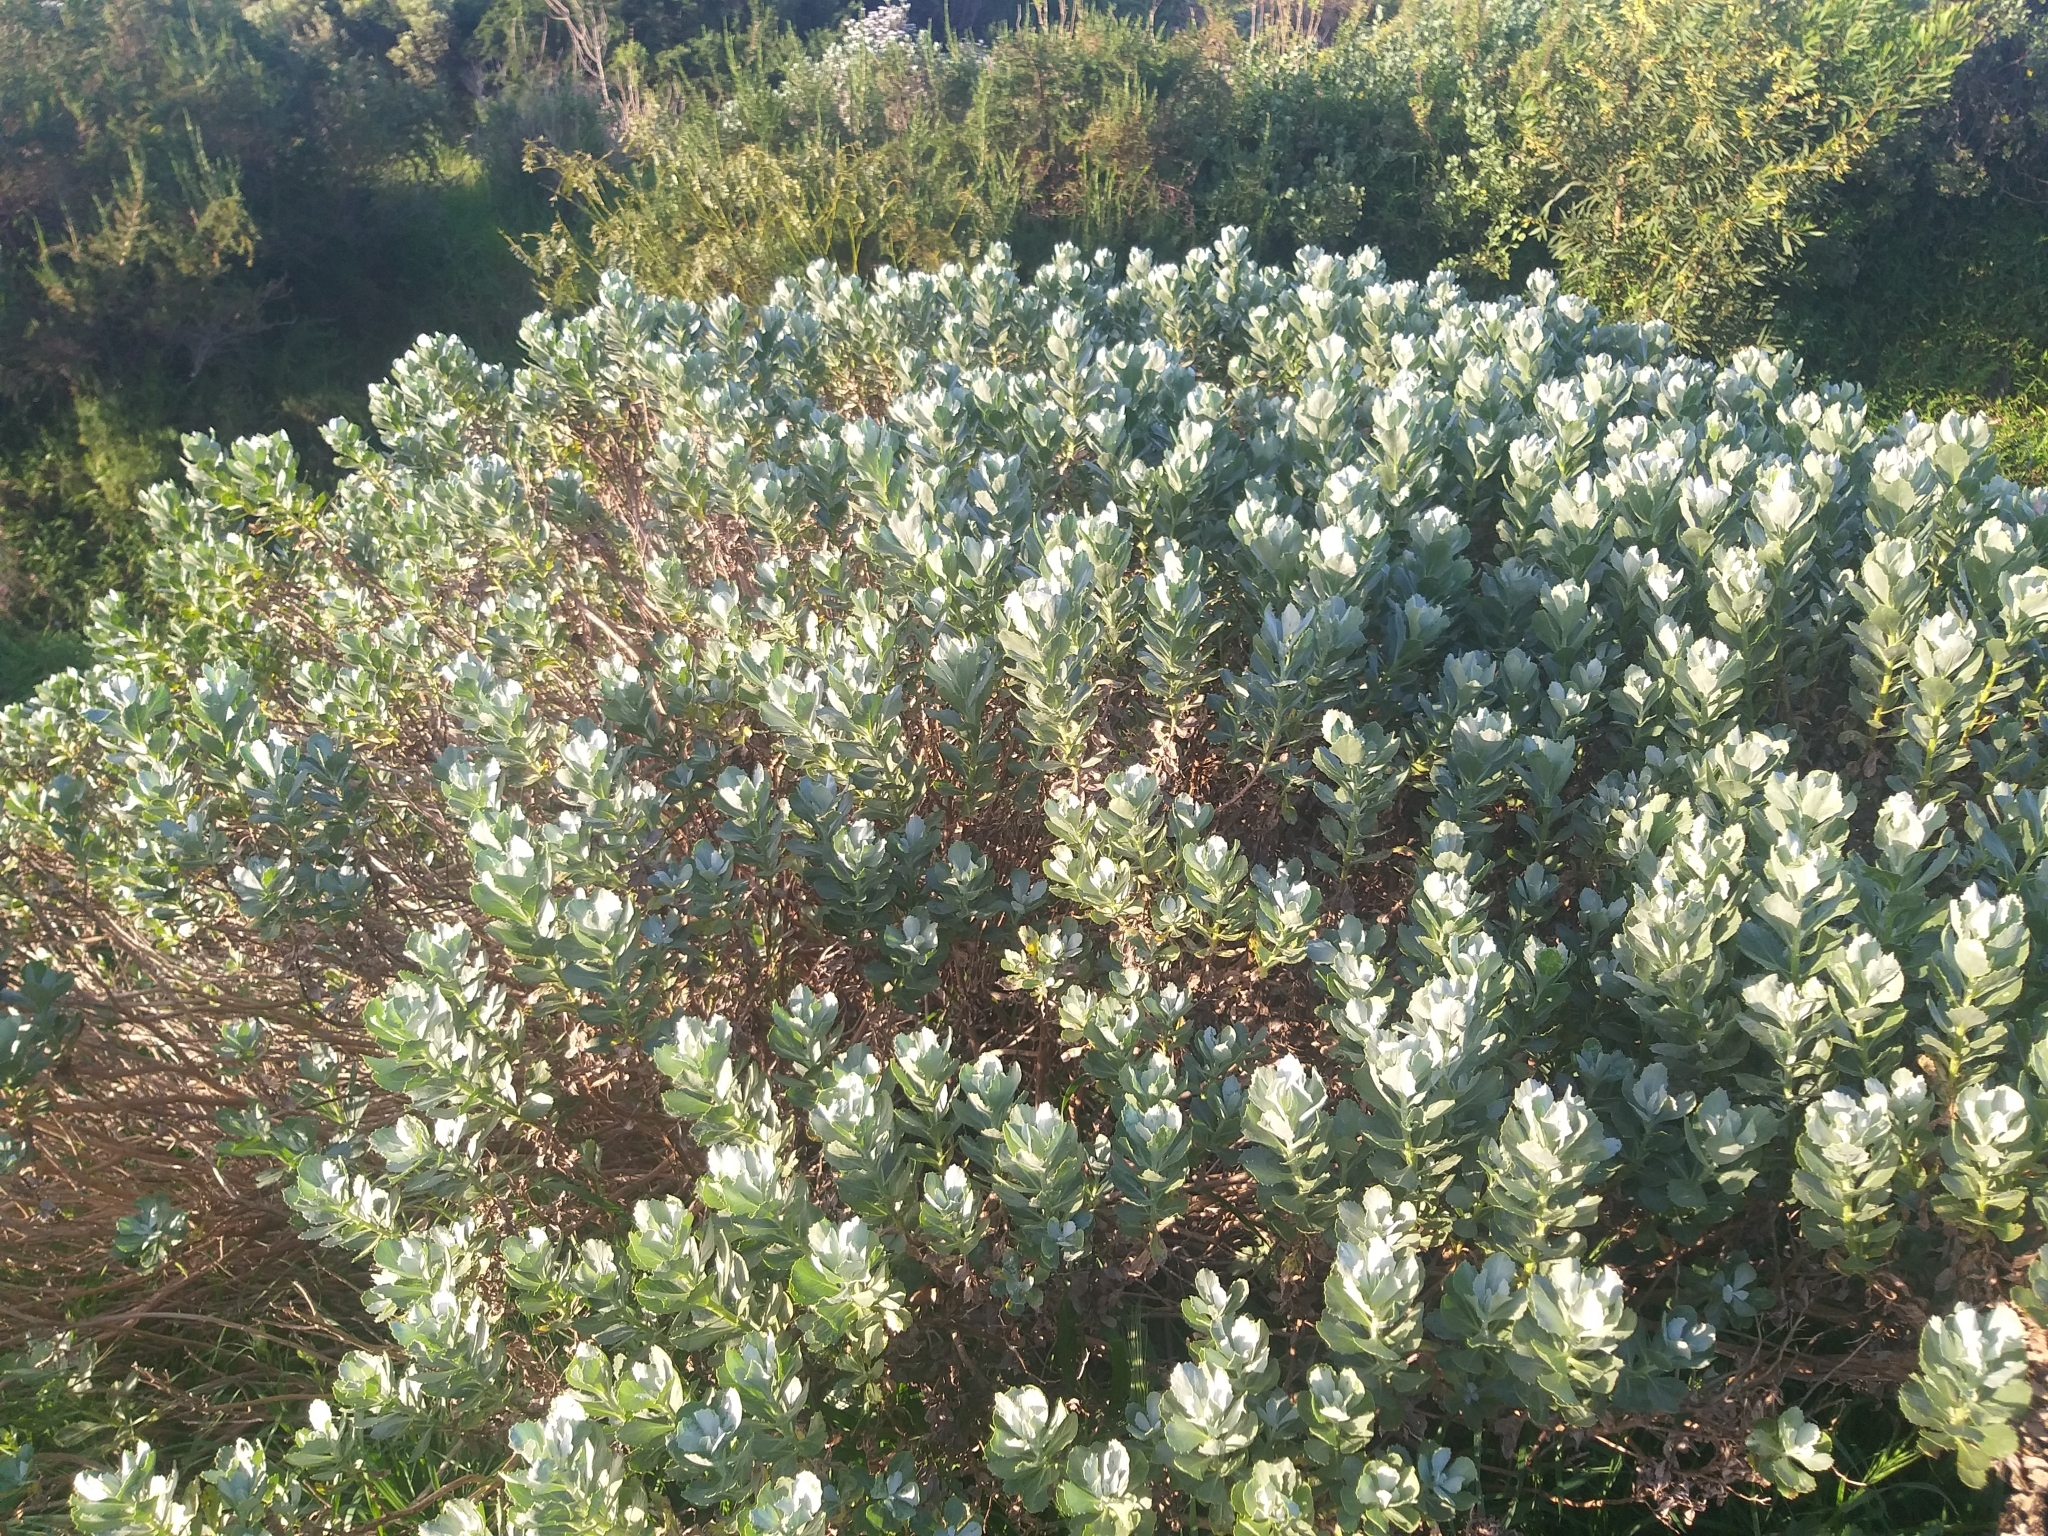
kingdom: Plantae
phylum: Tracheophyta
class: Magnoliopsida
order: Asterales
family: Asteraceae
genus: Senecio
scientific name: Senecio halimifolius
